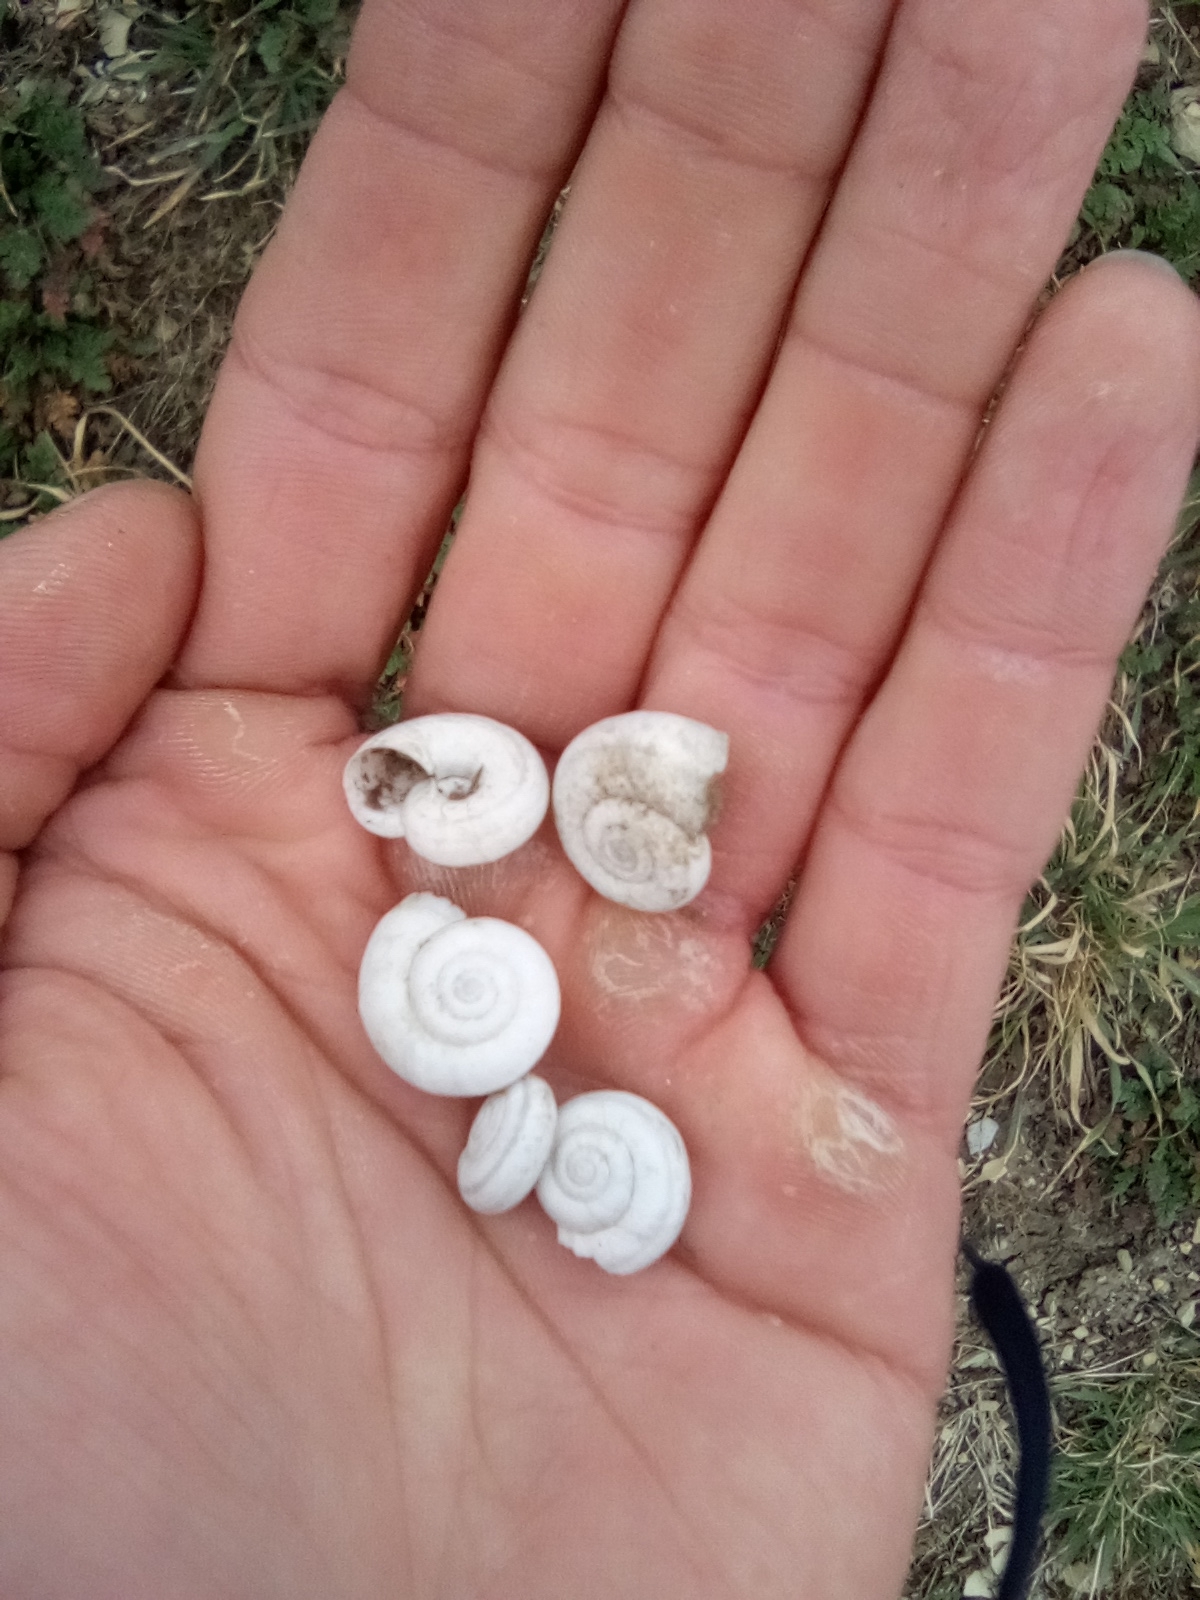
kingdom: Animalia
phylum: Mollusca
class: Gastropoda
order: Stylommatophora
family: Geomitridae
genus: Xeropicta
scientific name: Xeropicta derbentina
